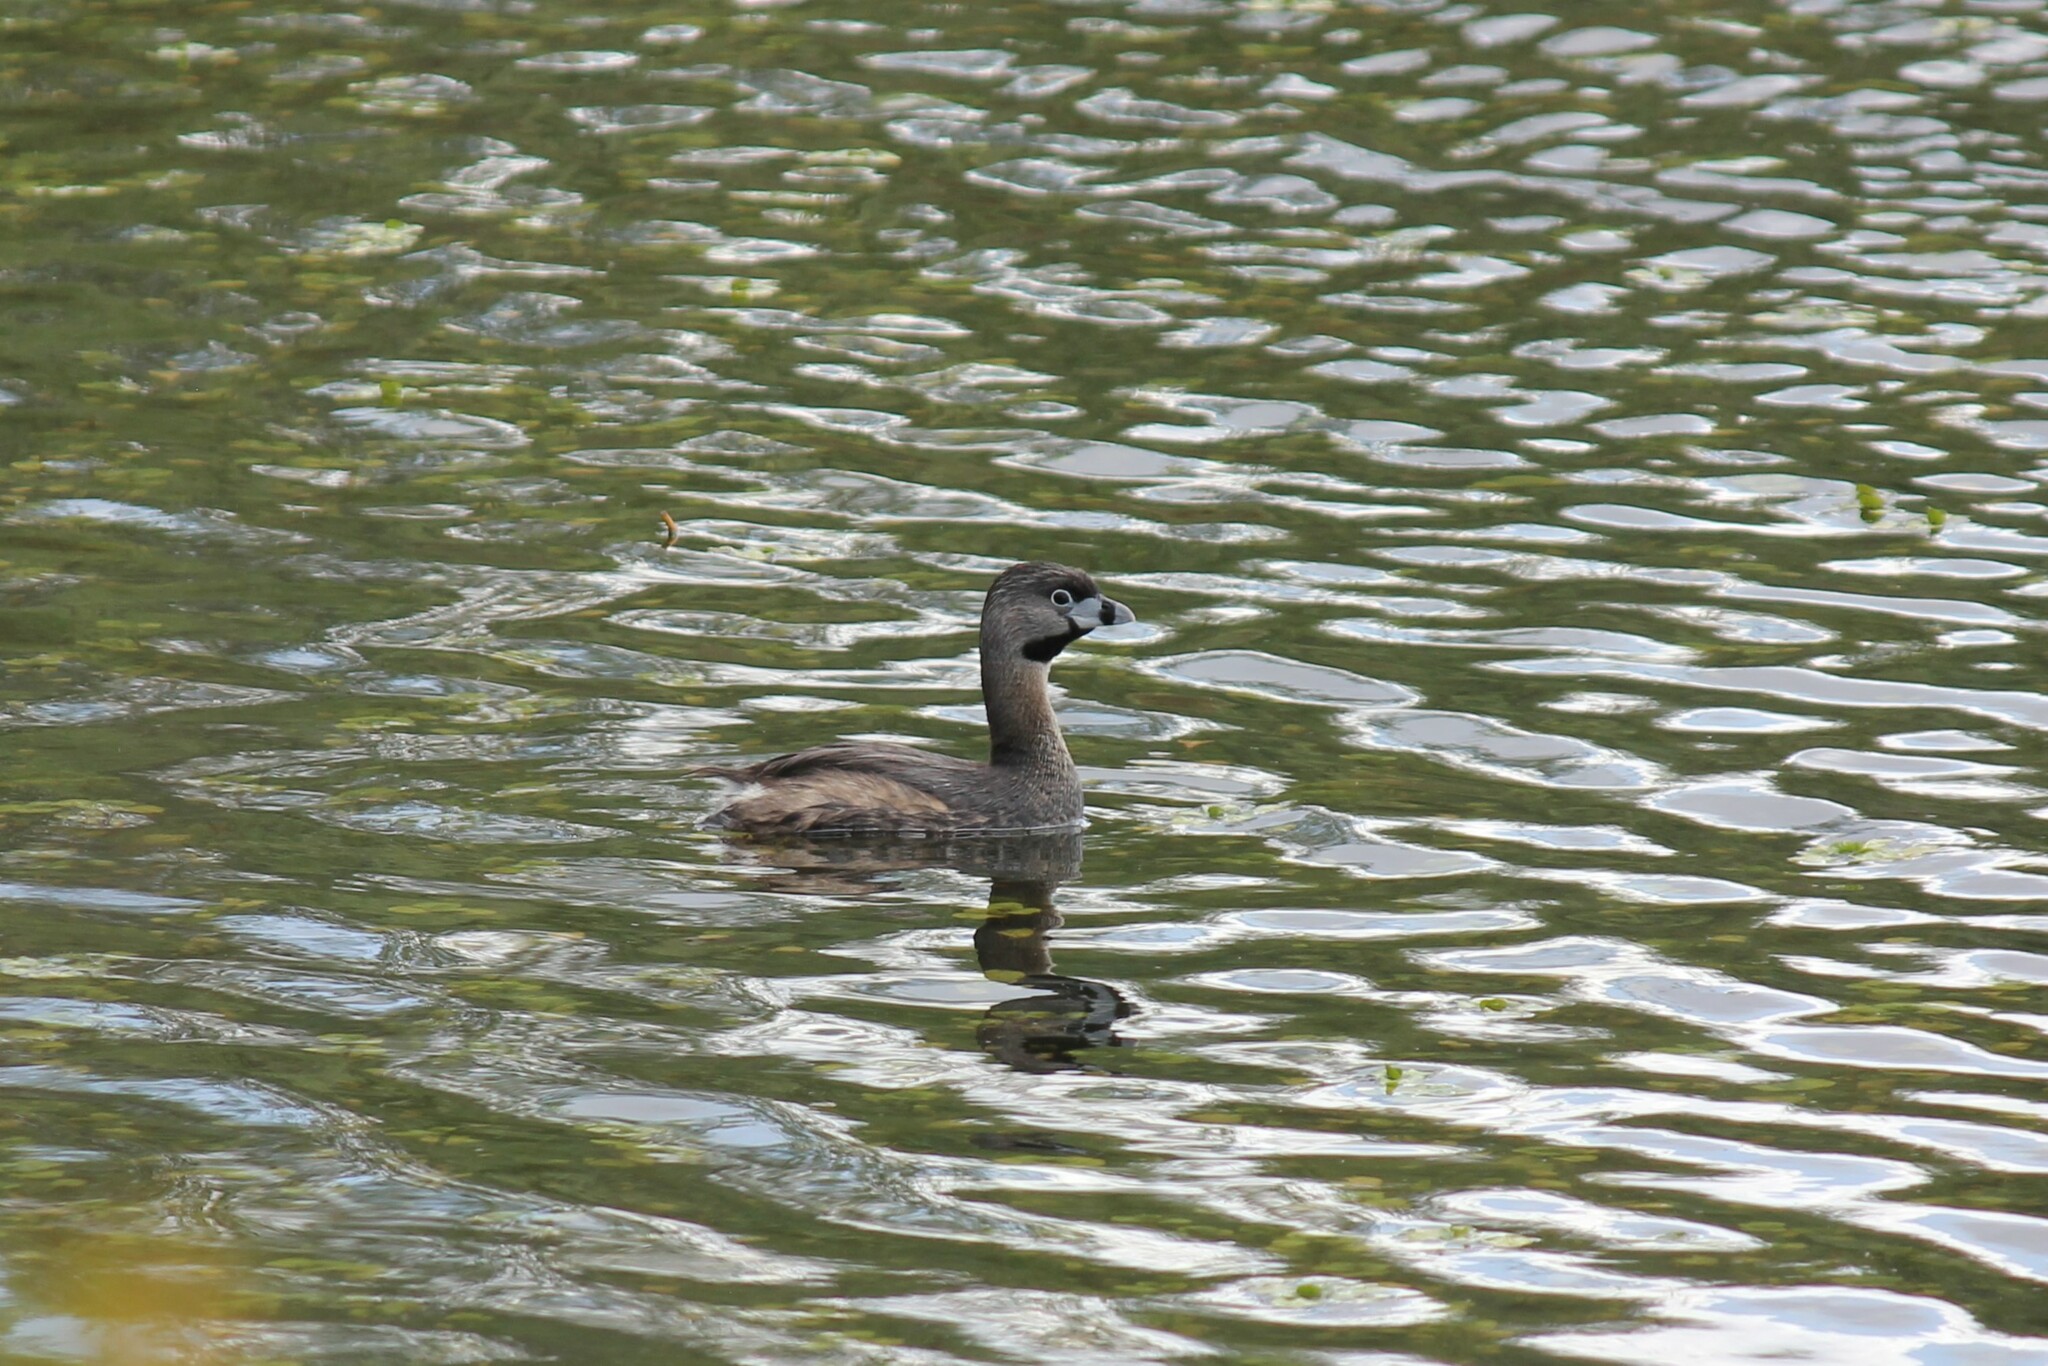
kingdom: Animalia
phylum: Chordata
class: Aves
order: Podicipediformes
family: Podicipedidae
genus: Podilymbus
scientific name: Podilymbus podiceps
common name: Pied-billed grebe
